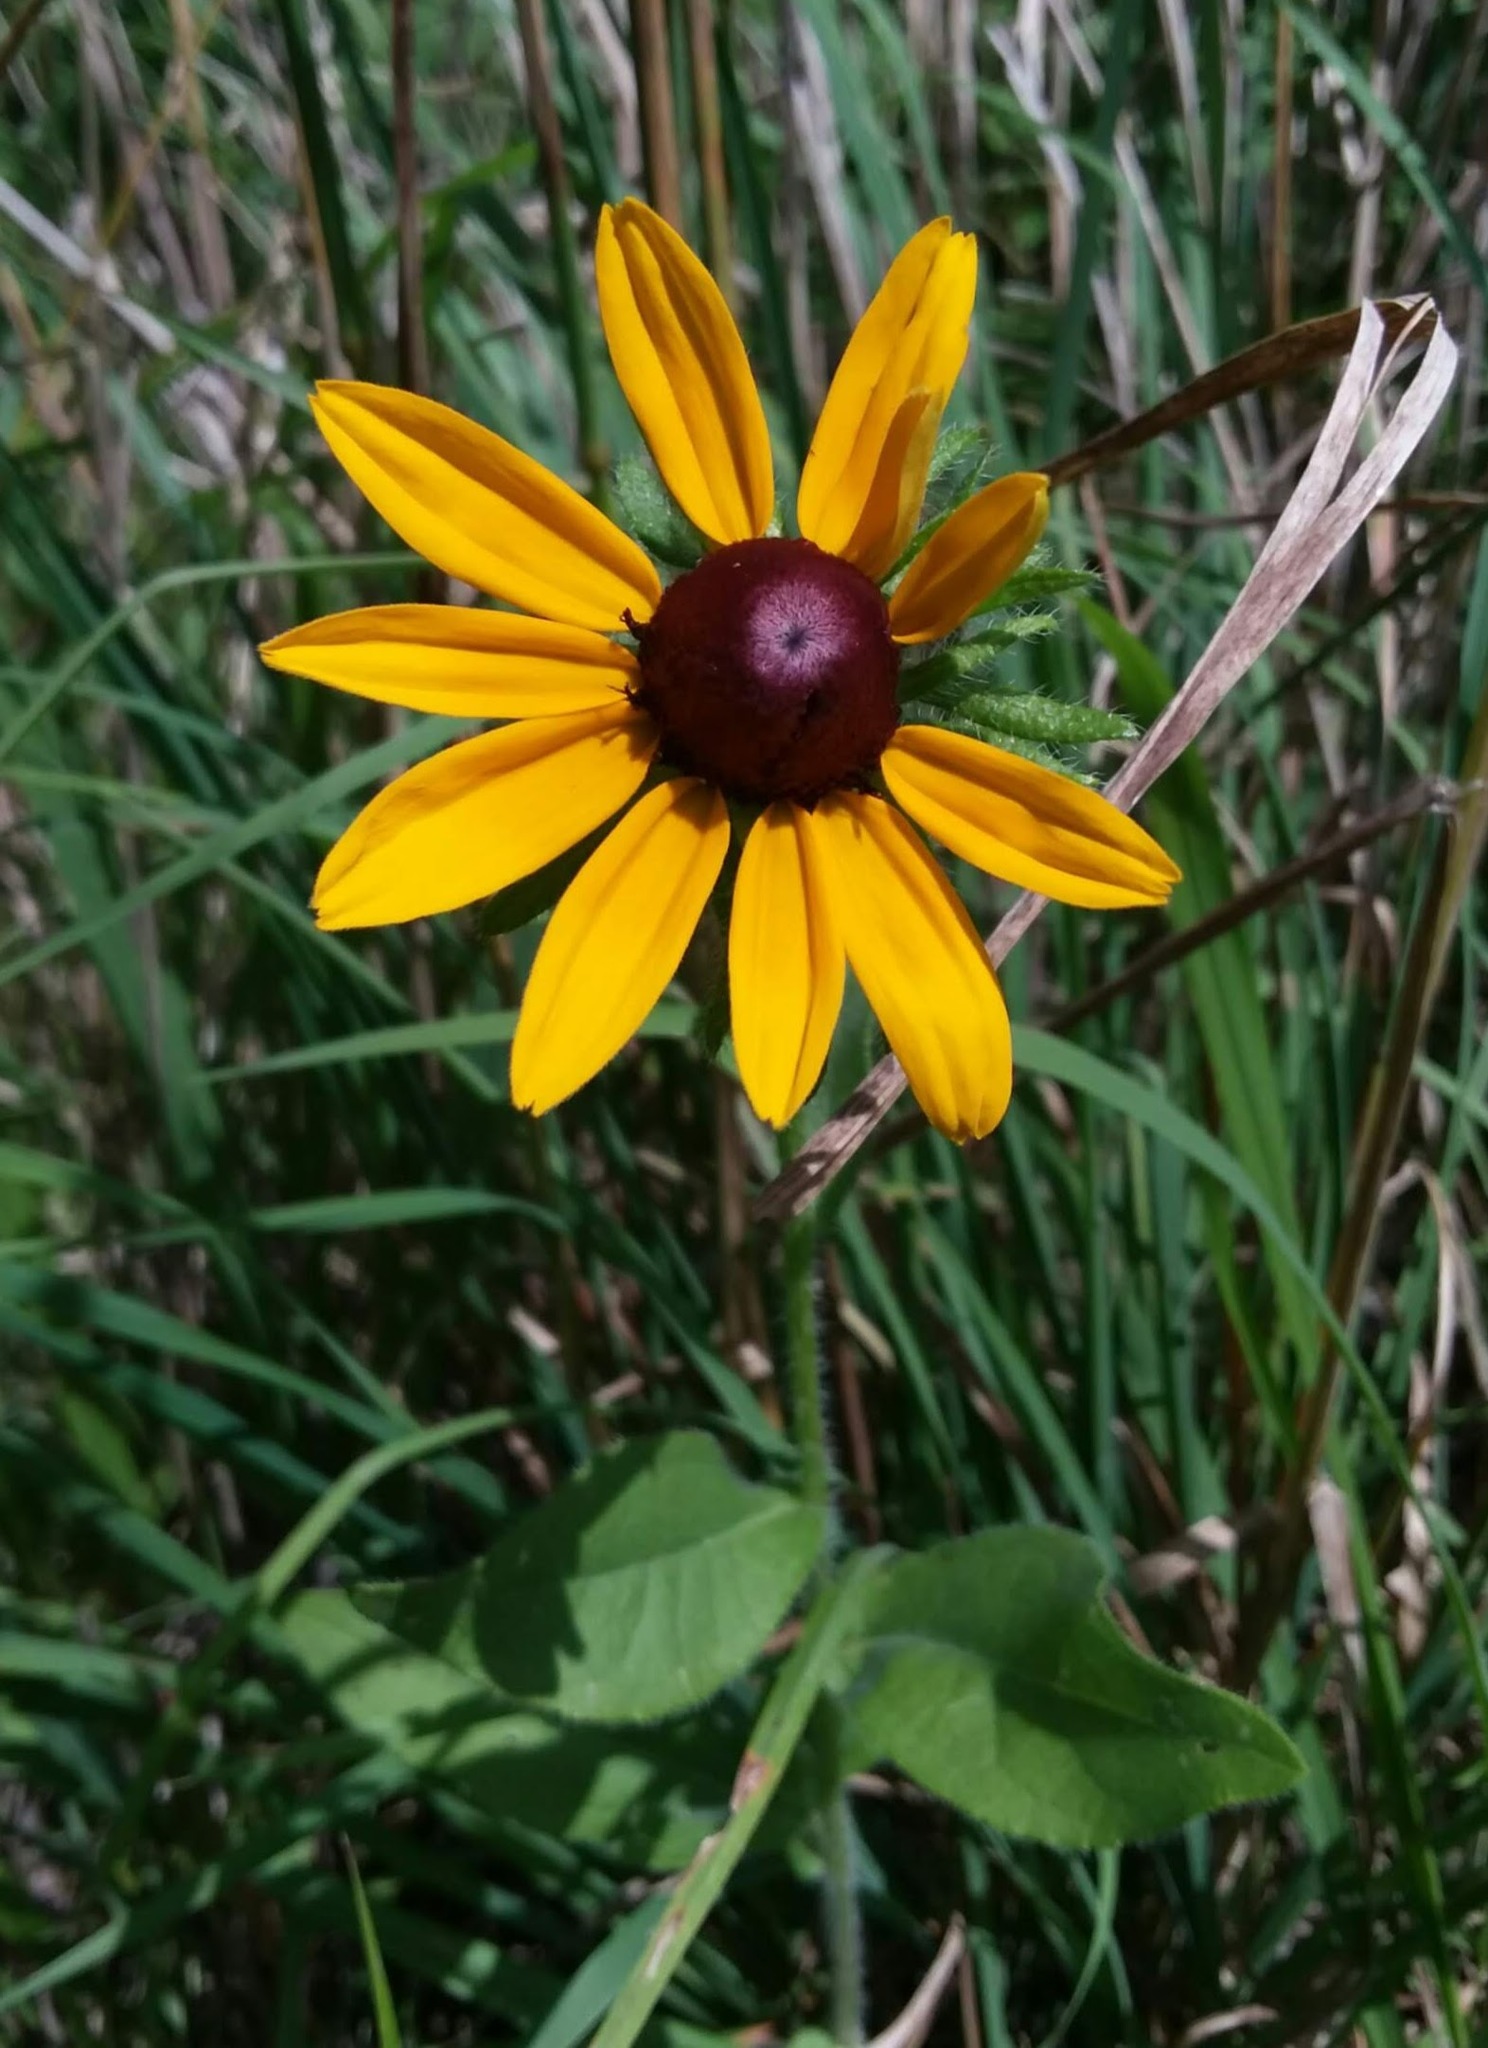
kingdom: Plantae
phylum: Tracheophyta
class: Magnoliopsida
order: Asterales
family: Asteraceae
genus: Rudbeckia
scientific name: Rudbeckia hirta
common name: Black-eyed-susan
